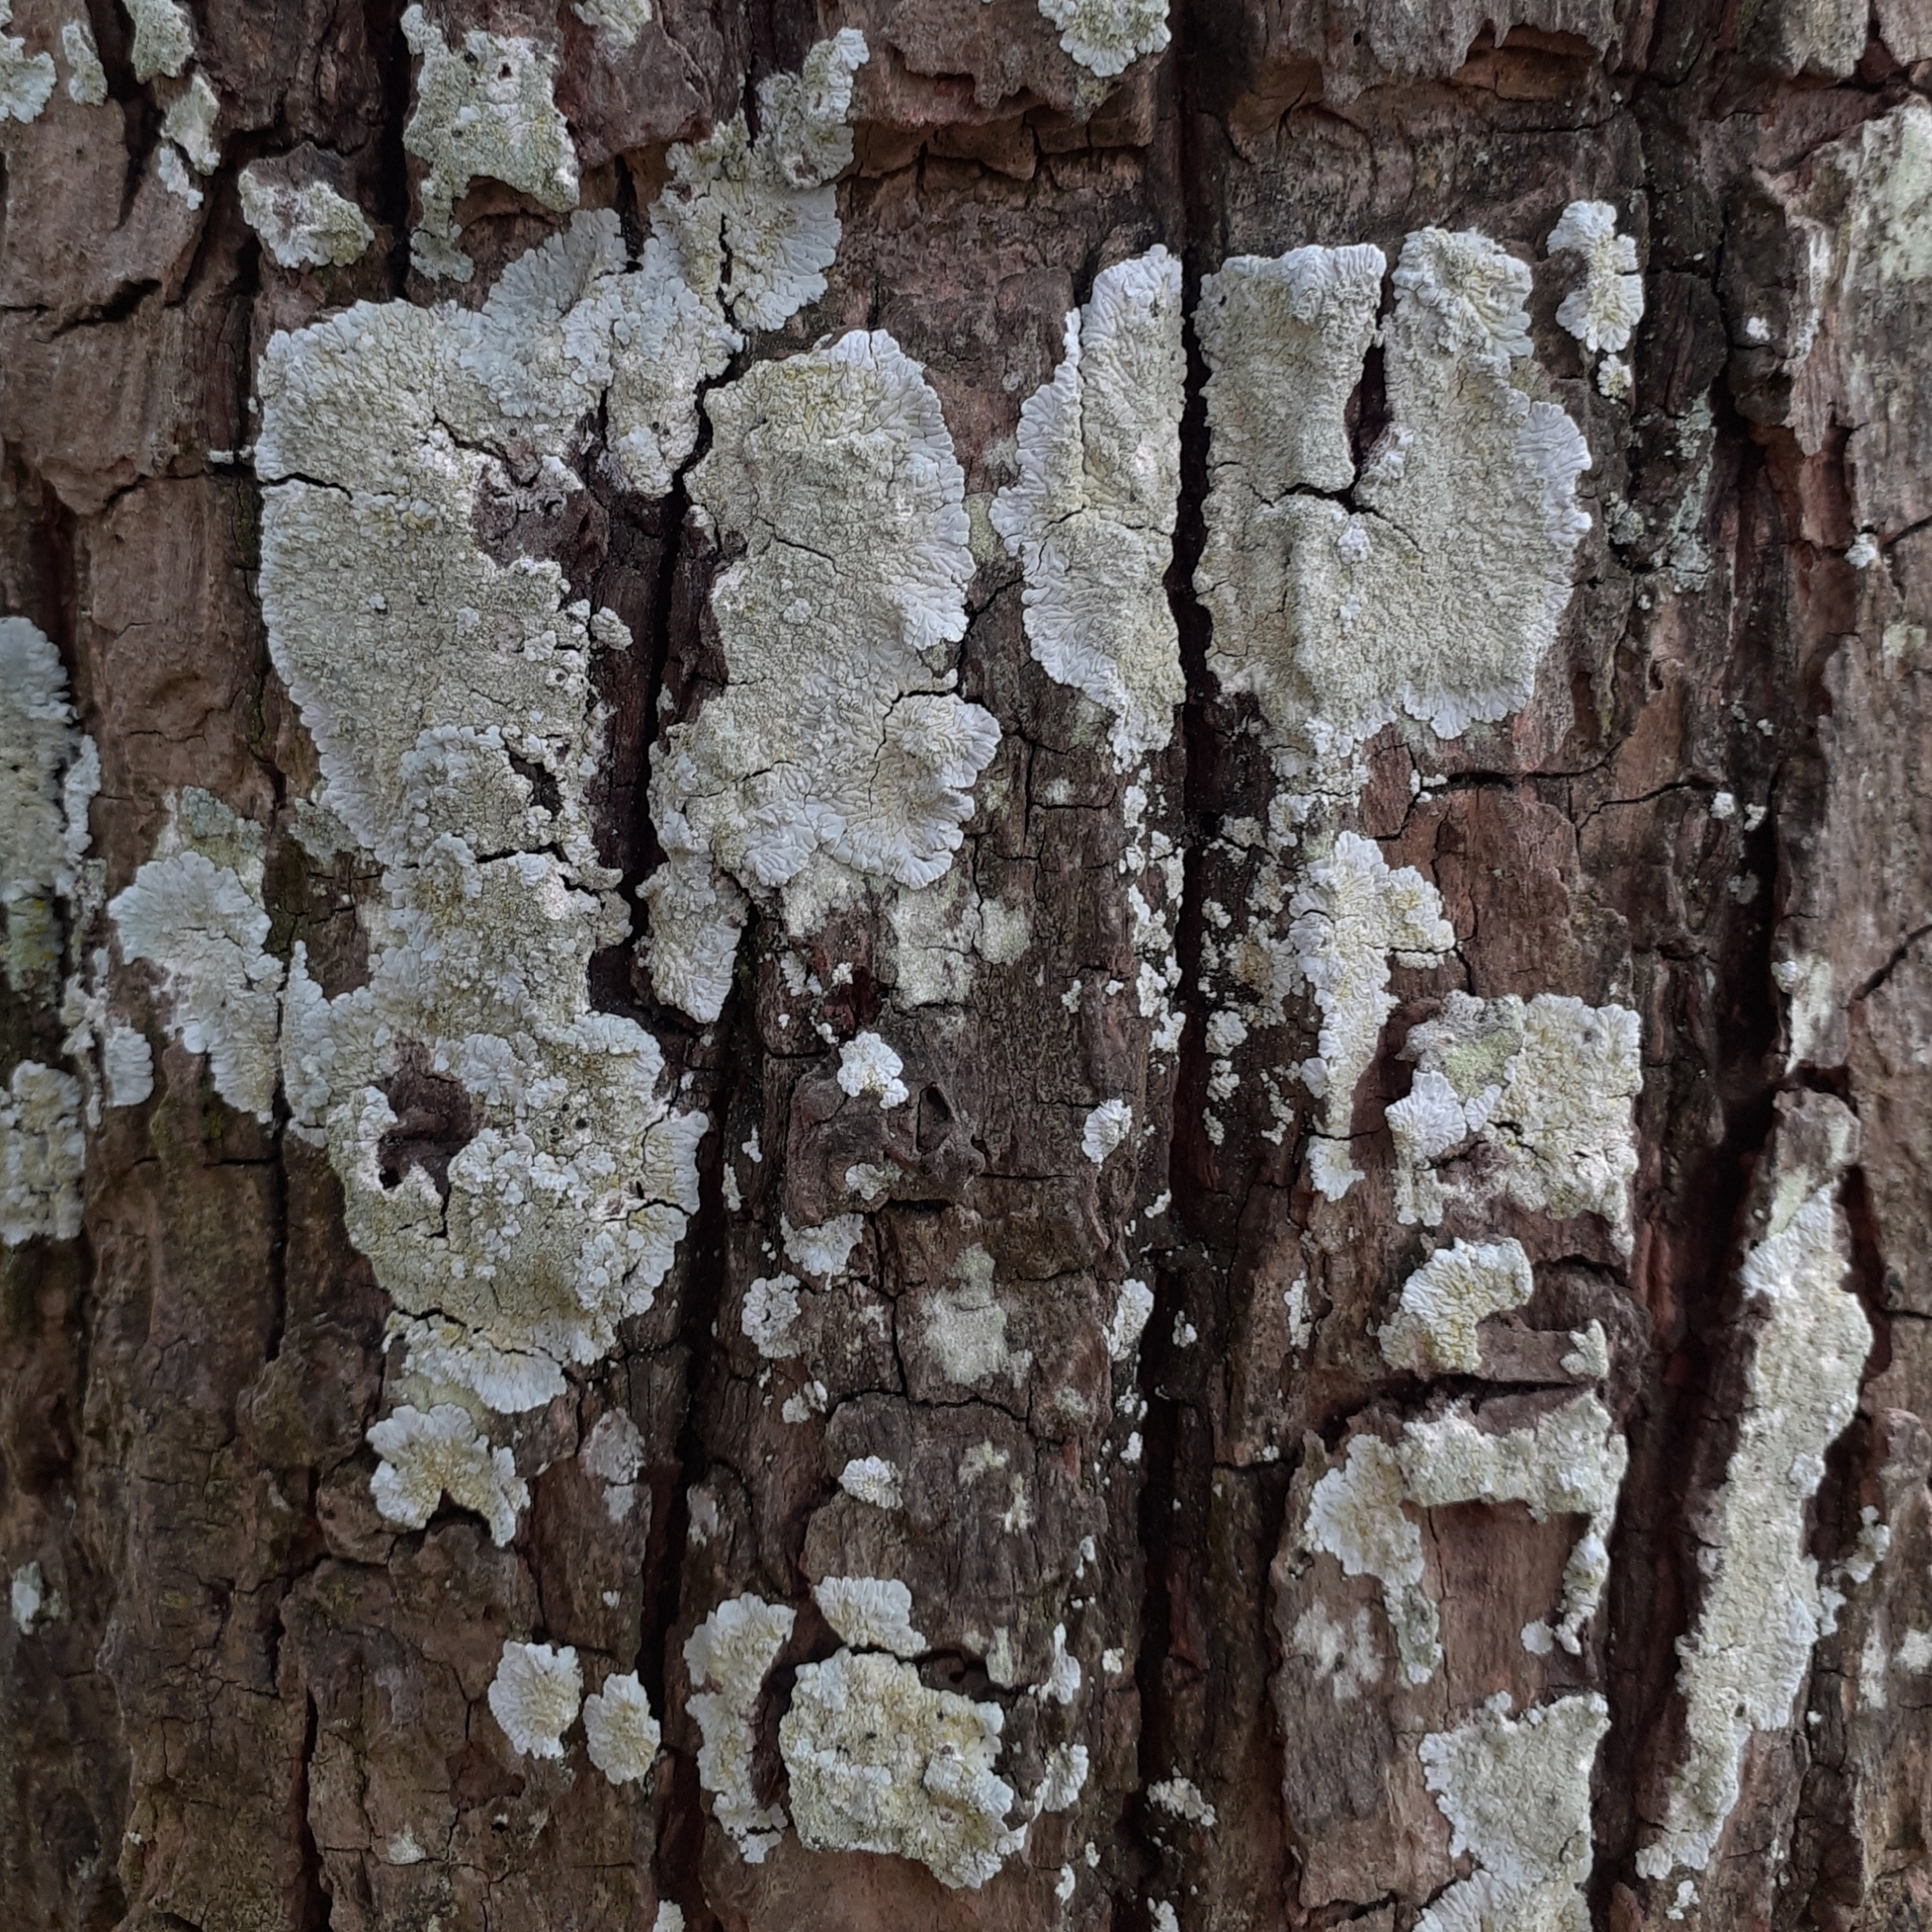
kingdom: Fungi
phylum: Ascomycota
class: Lecanoromycetes
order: Caliciales
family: Caliciaceae
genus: Diploicia
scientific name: Diploicia canescens
